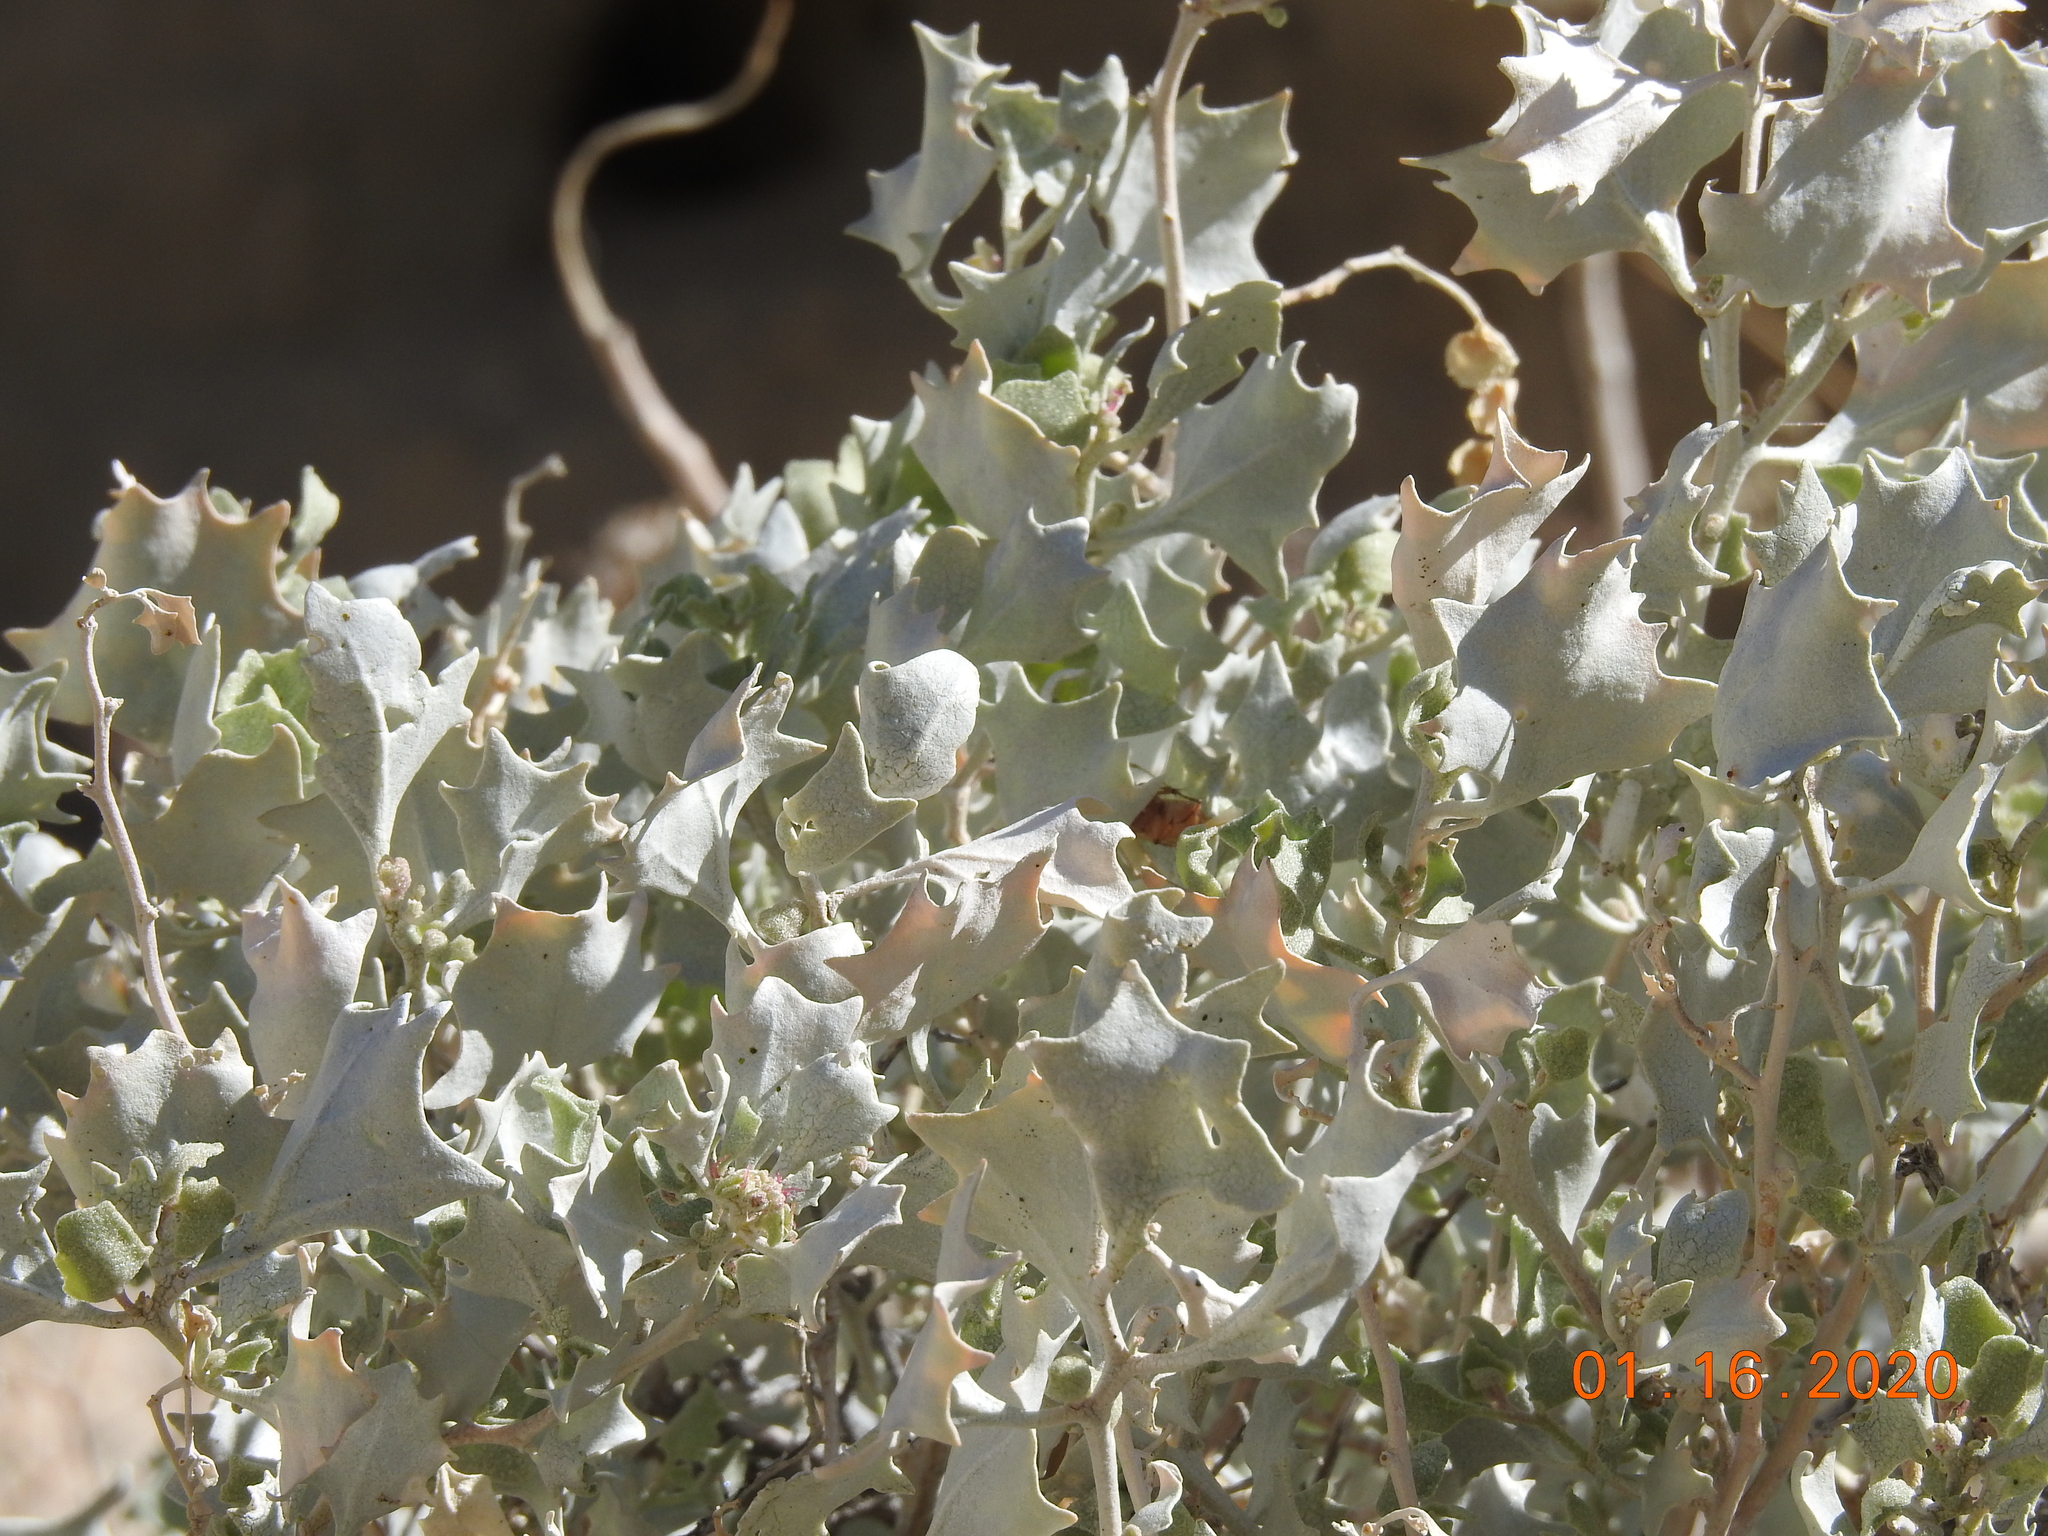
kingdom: Plantae
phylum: Tracheophyta
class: Magnoliopsida
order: Caryophyllales
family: Amaranthaceae
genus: Atriplex
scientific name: Atriplex hymenelytra
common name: Desert-holly
